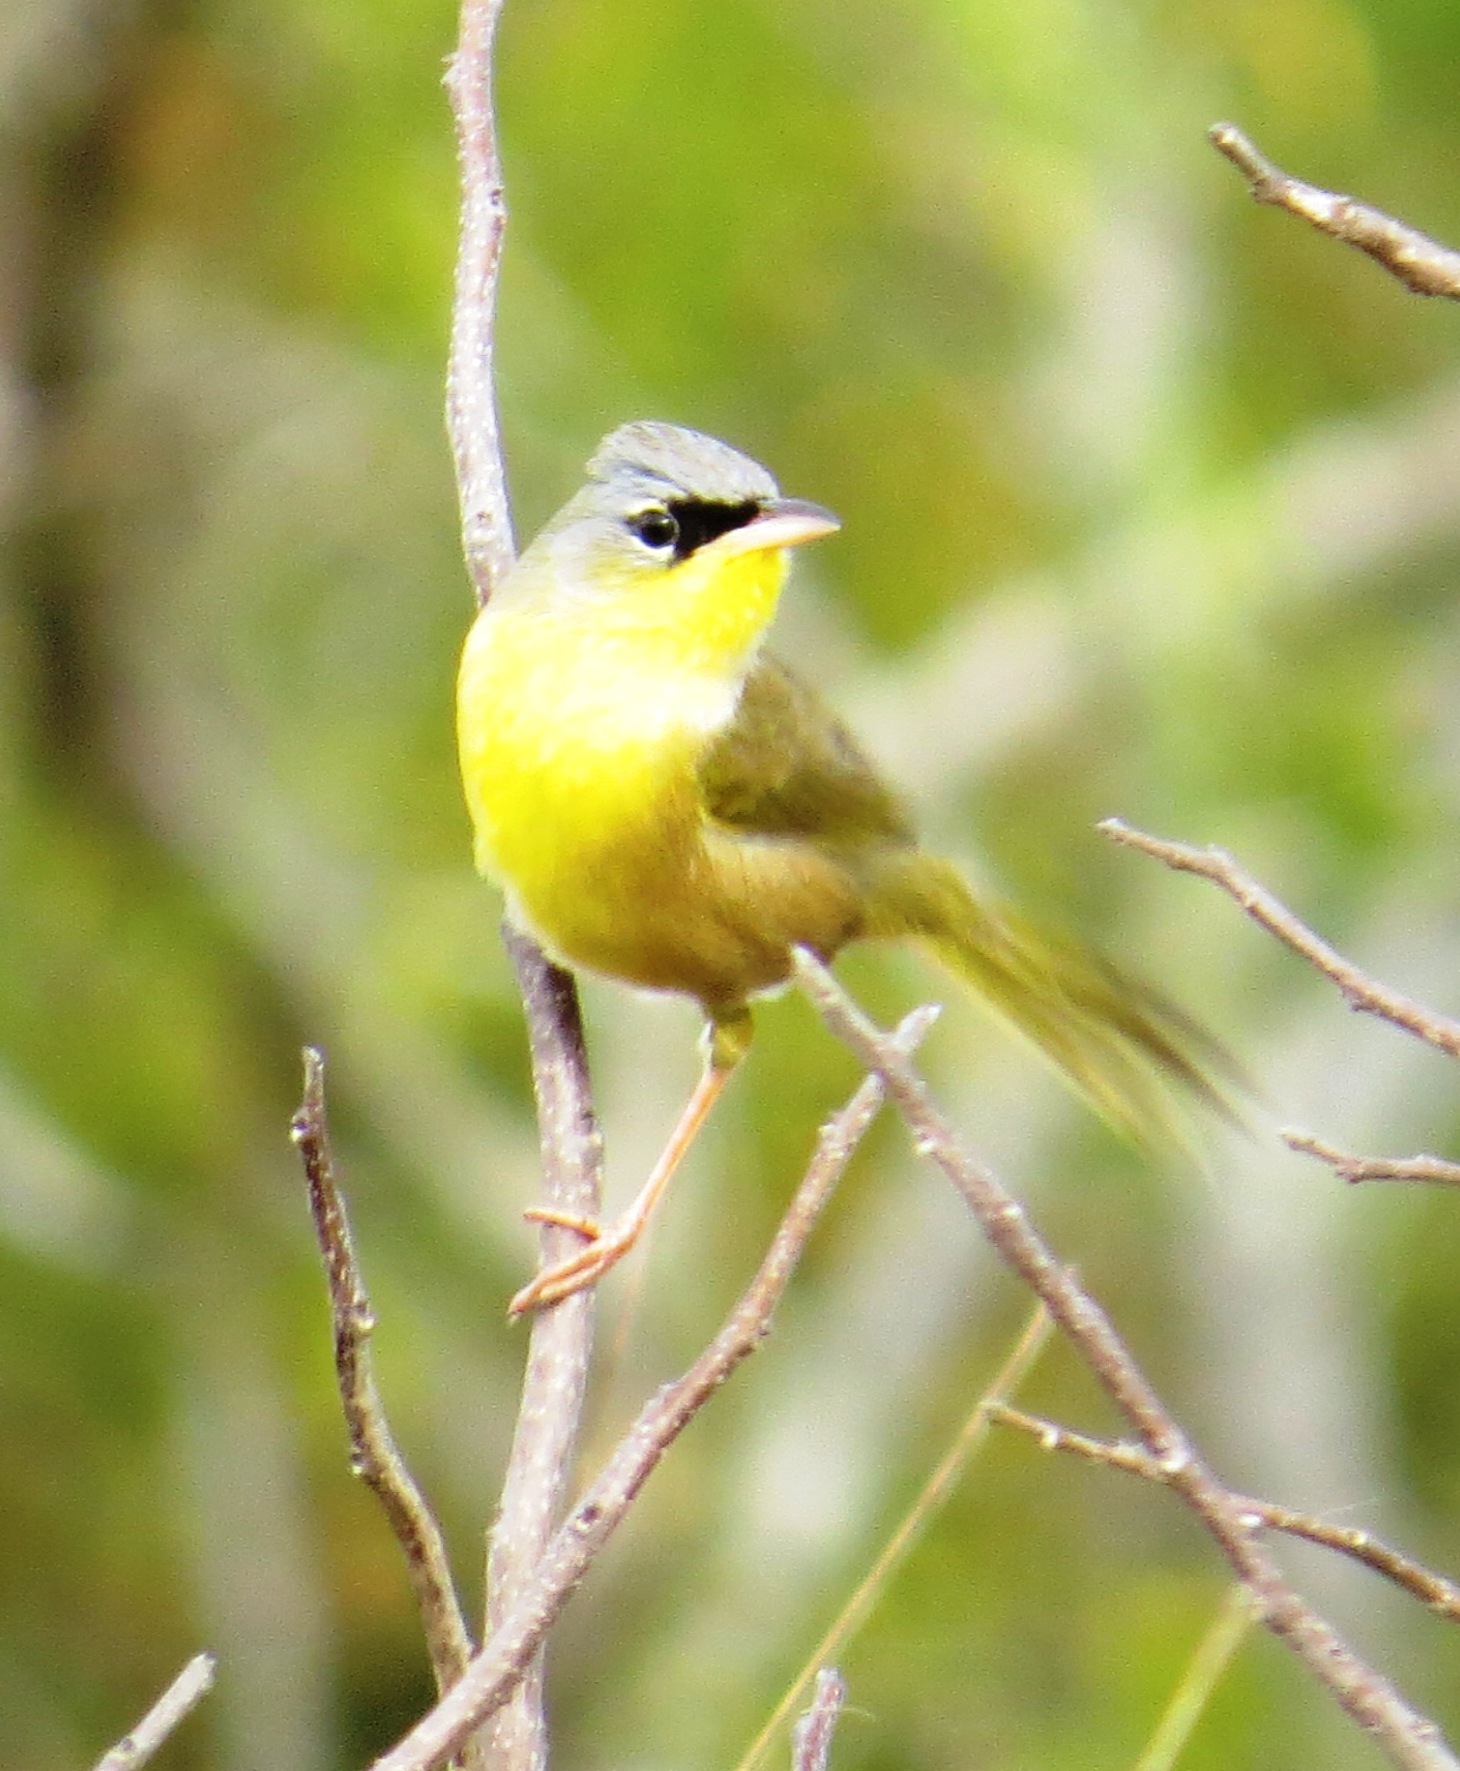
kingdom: Animalia
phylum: Chordata
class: Aves
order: Passeriformes
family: Parulidae
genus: Geothlypis
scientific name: Geothlypis poliocephala
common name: Gray-crowned yellowthroat
